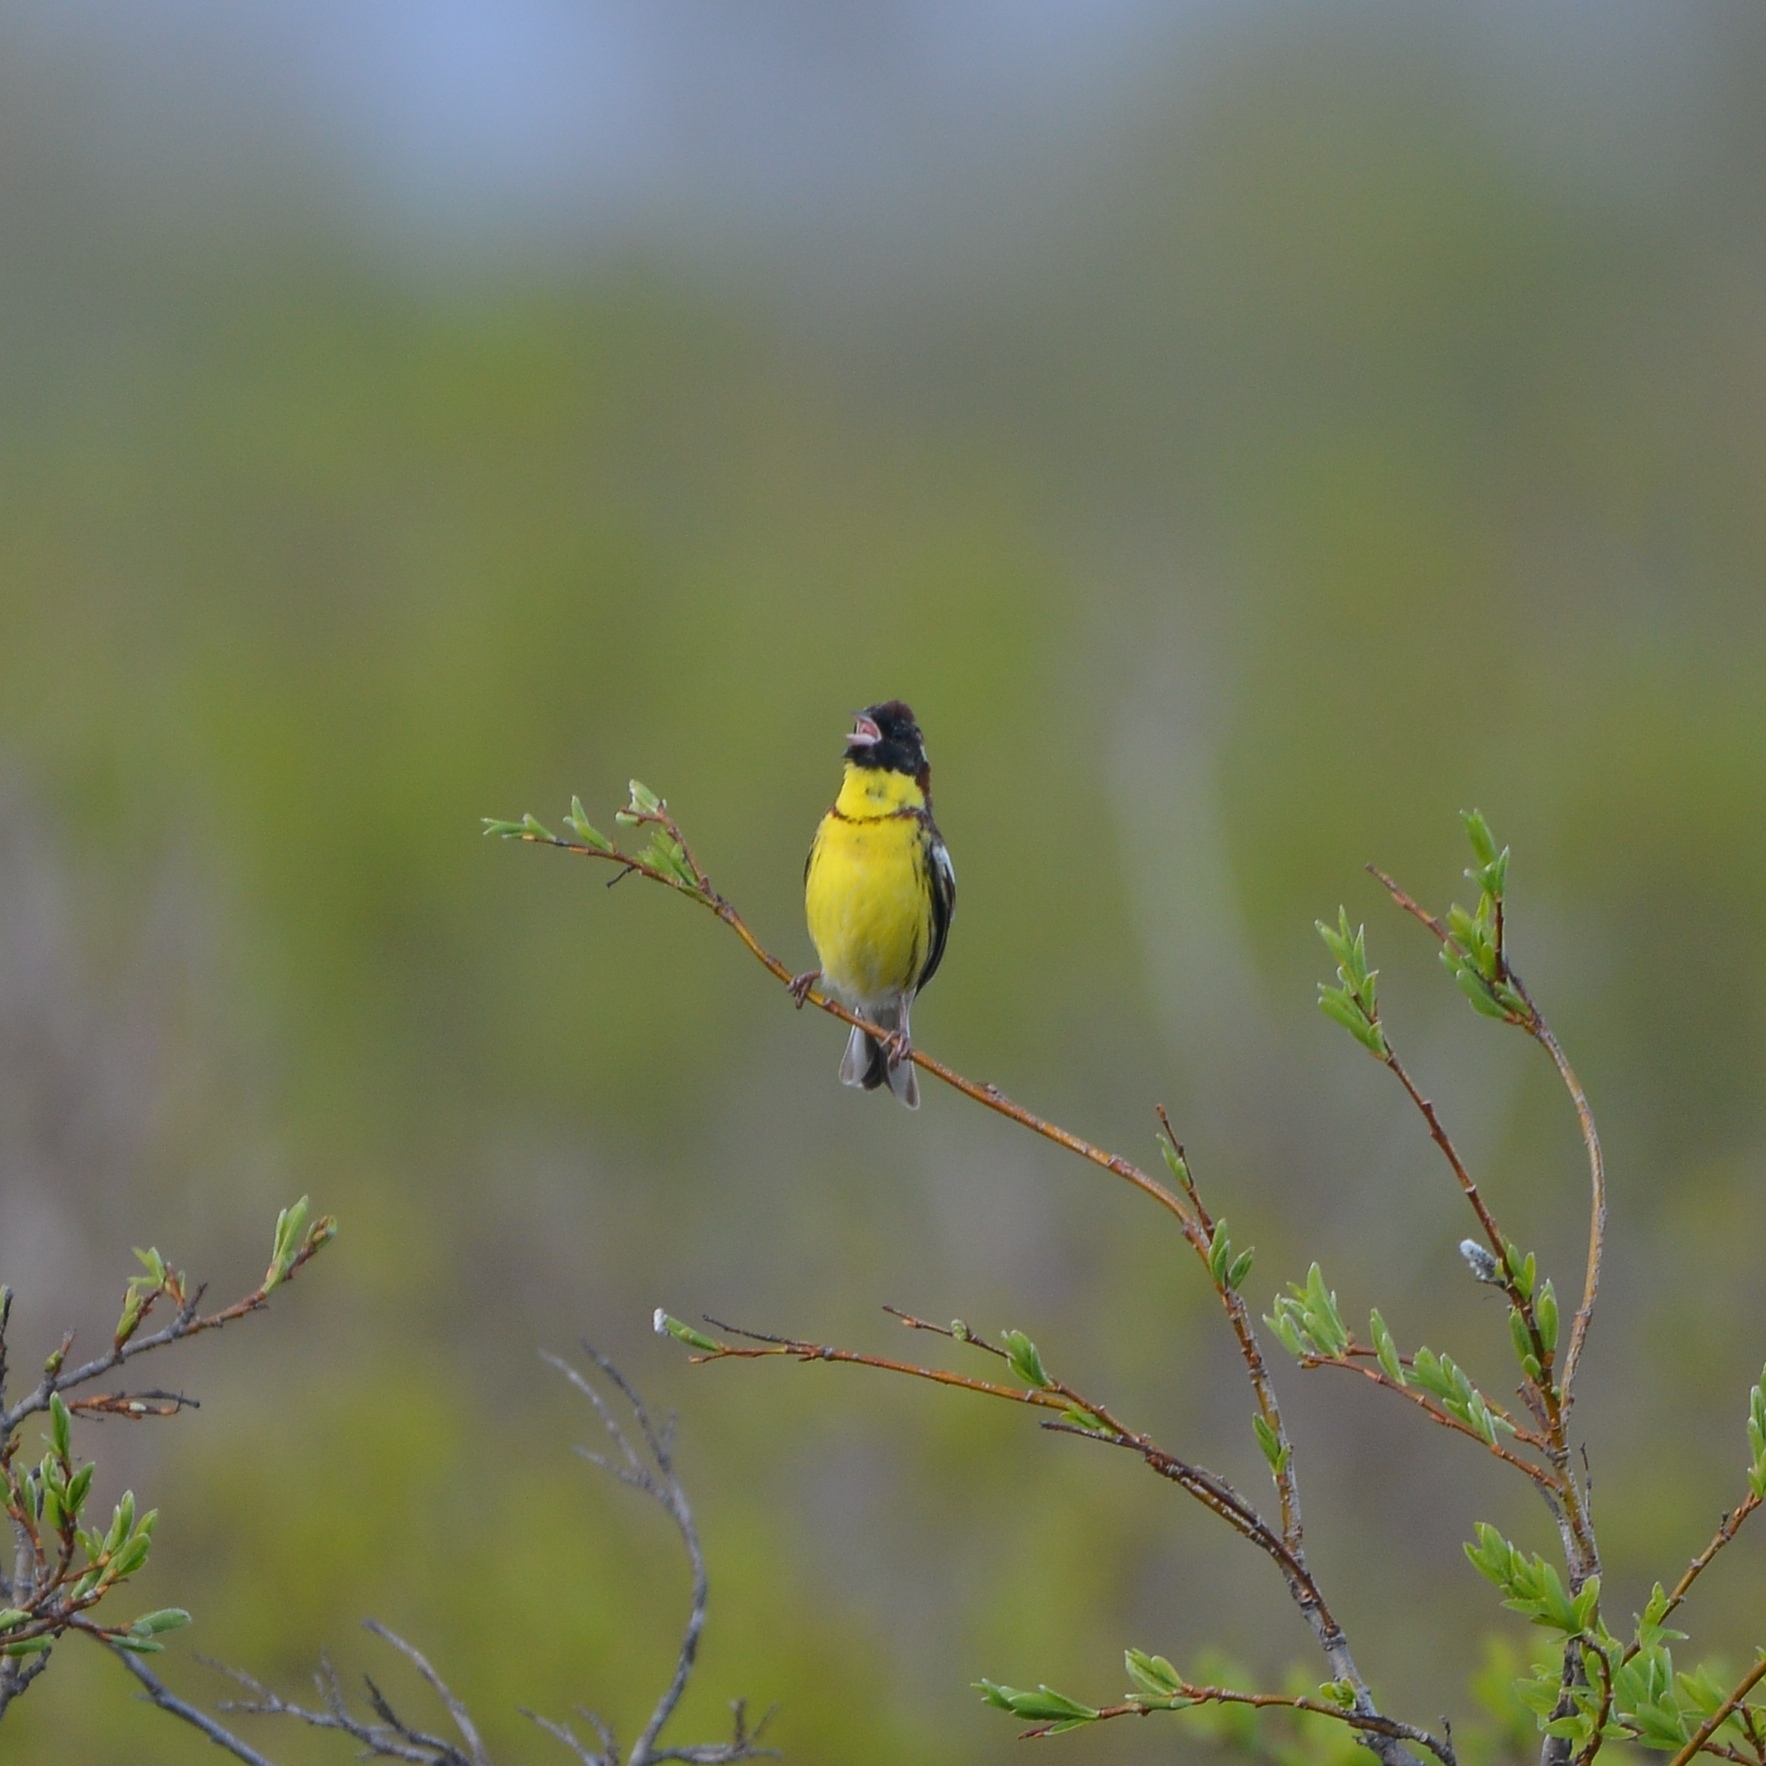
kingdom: Animalia
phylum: Chordata
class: Aves
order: Passeriformes
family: Emberizidae
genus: Emberiza
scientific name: Emberiza aureola
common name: Yellow-breasted bunting
